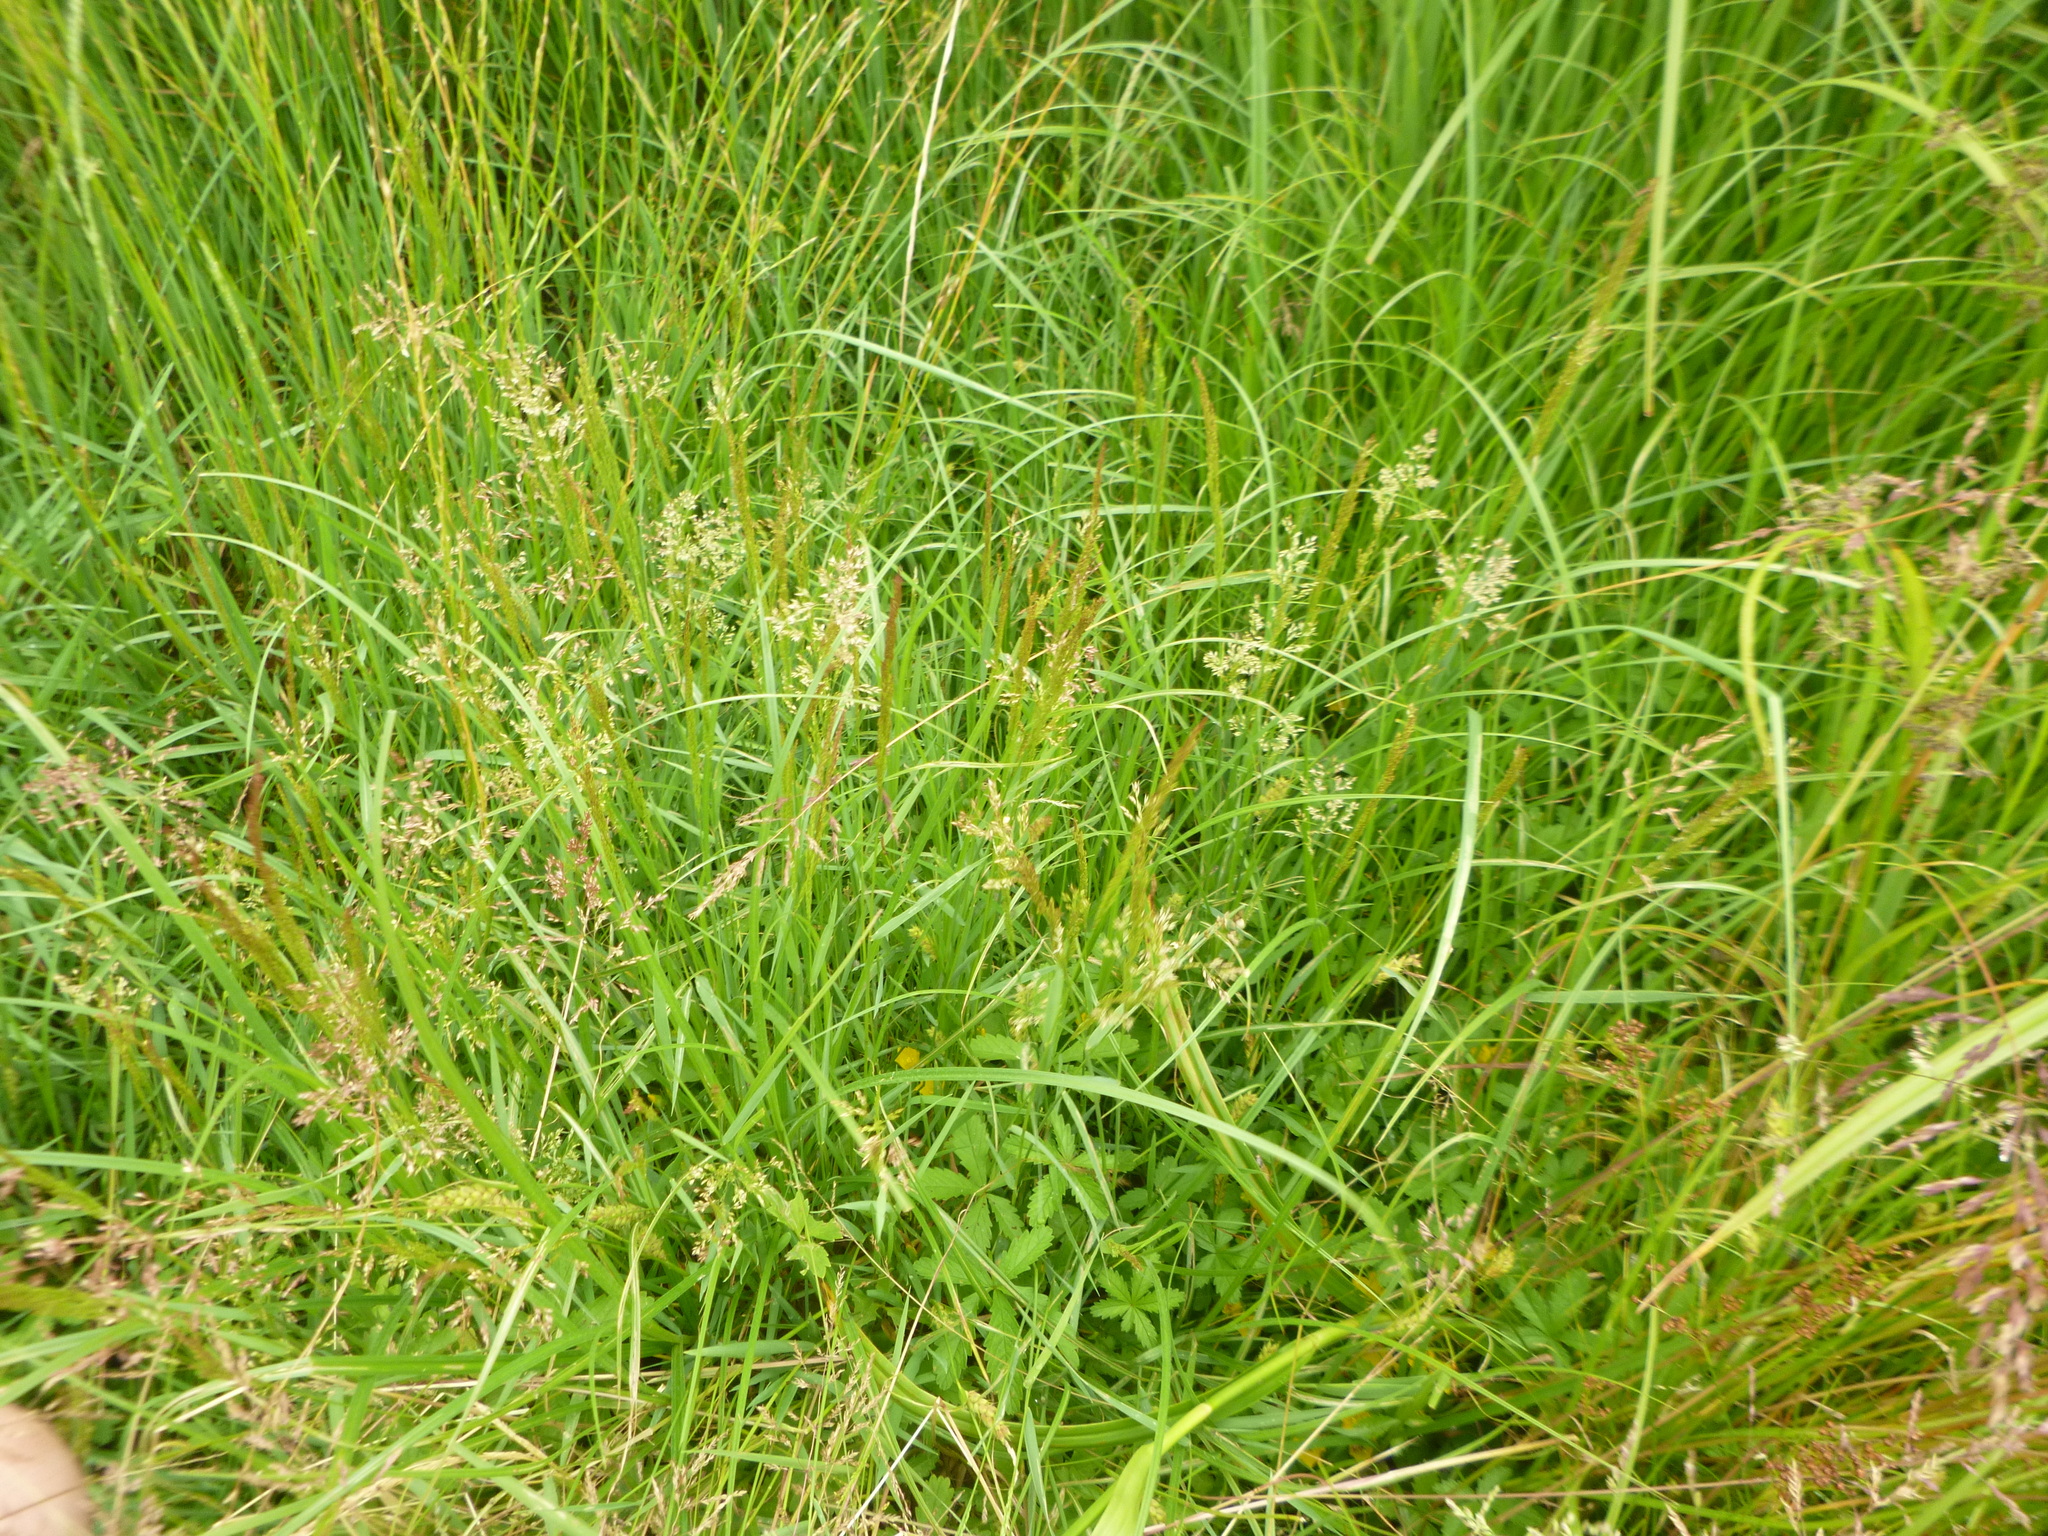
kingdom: Plantae
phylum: Tracheophyta
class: Liliopsida
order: Poales
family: Poaceae
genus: Holcus
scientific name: Holcus lanatus
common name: Yorkshire-fog
